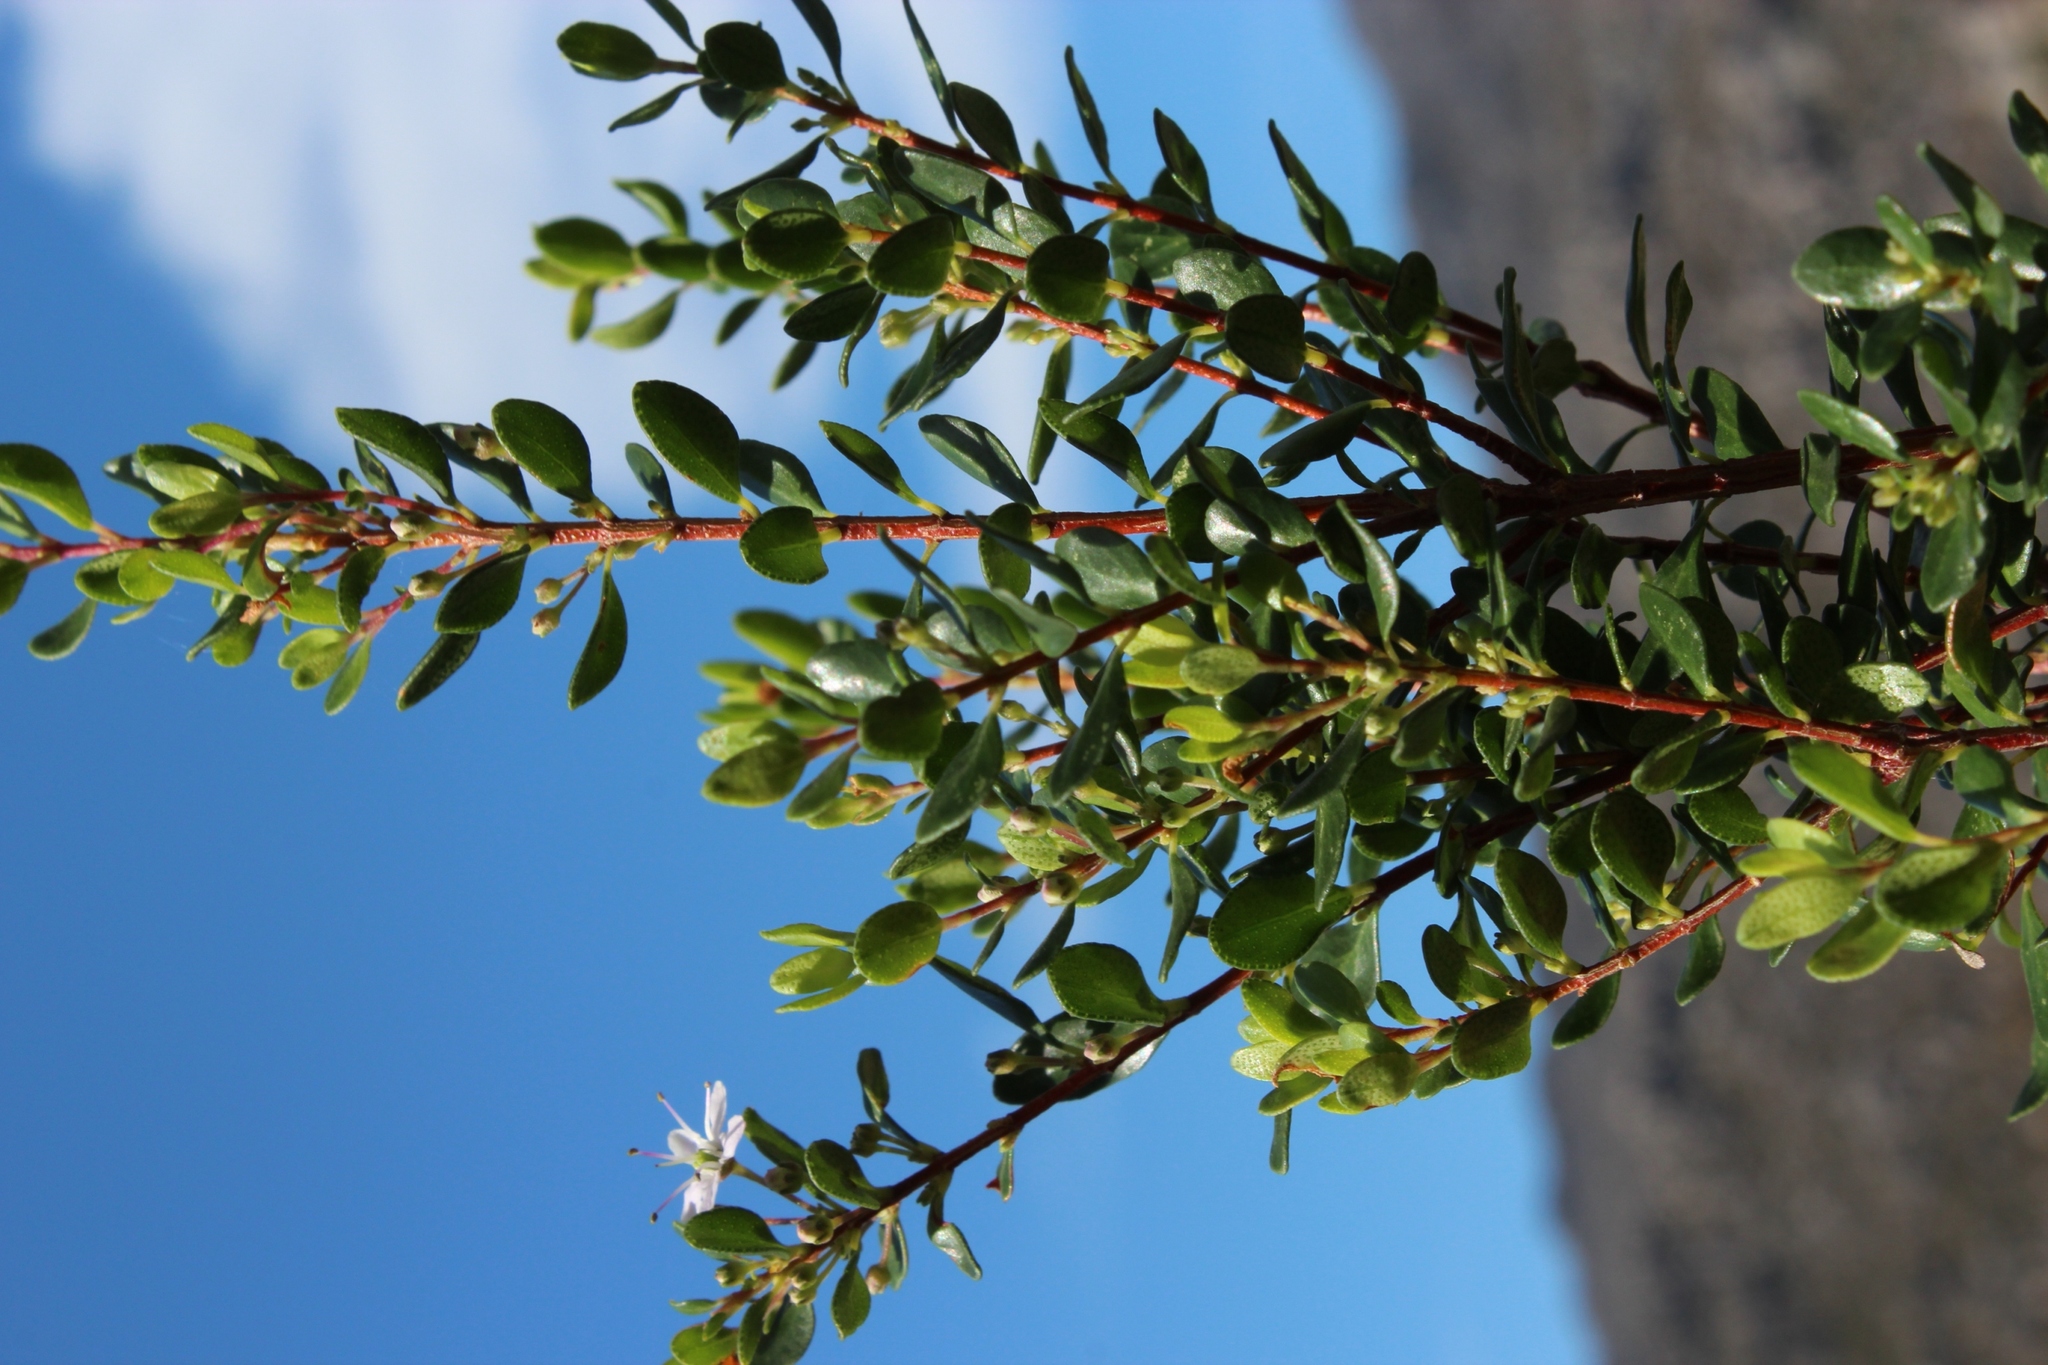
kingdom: Plantae
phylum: Tracheophyta
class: Magnoliopsida
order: Sapindales
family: Rutaceae
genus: Agathosma
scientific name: Agathosma crenulata
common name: Oval buchu
